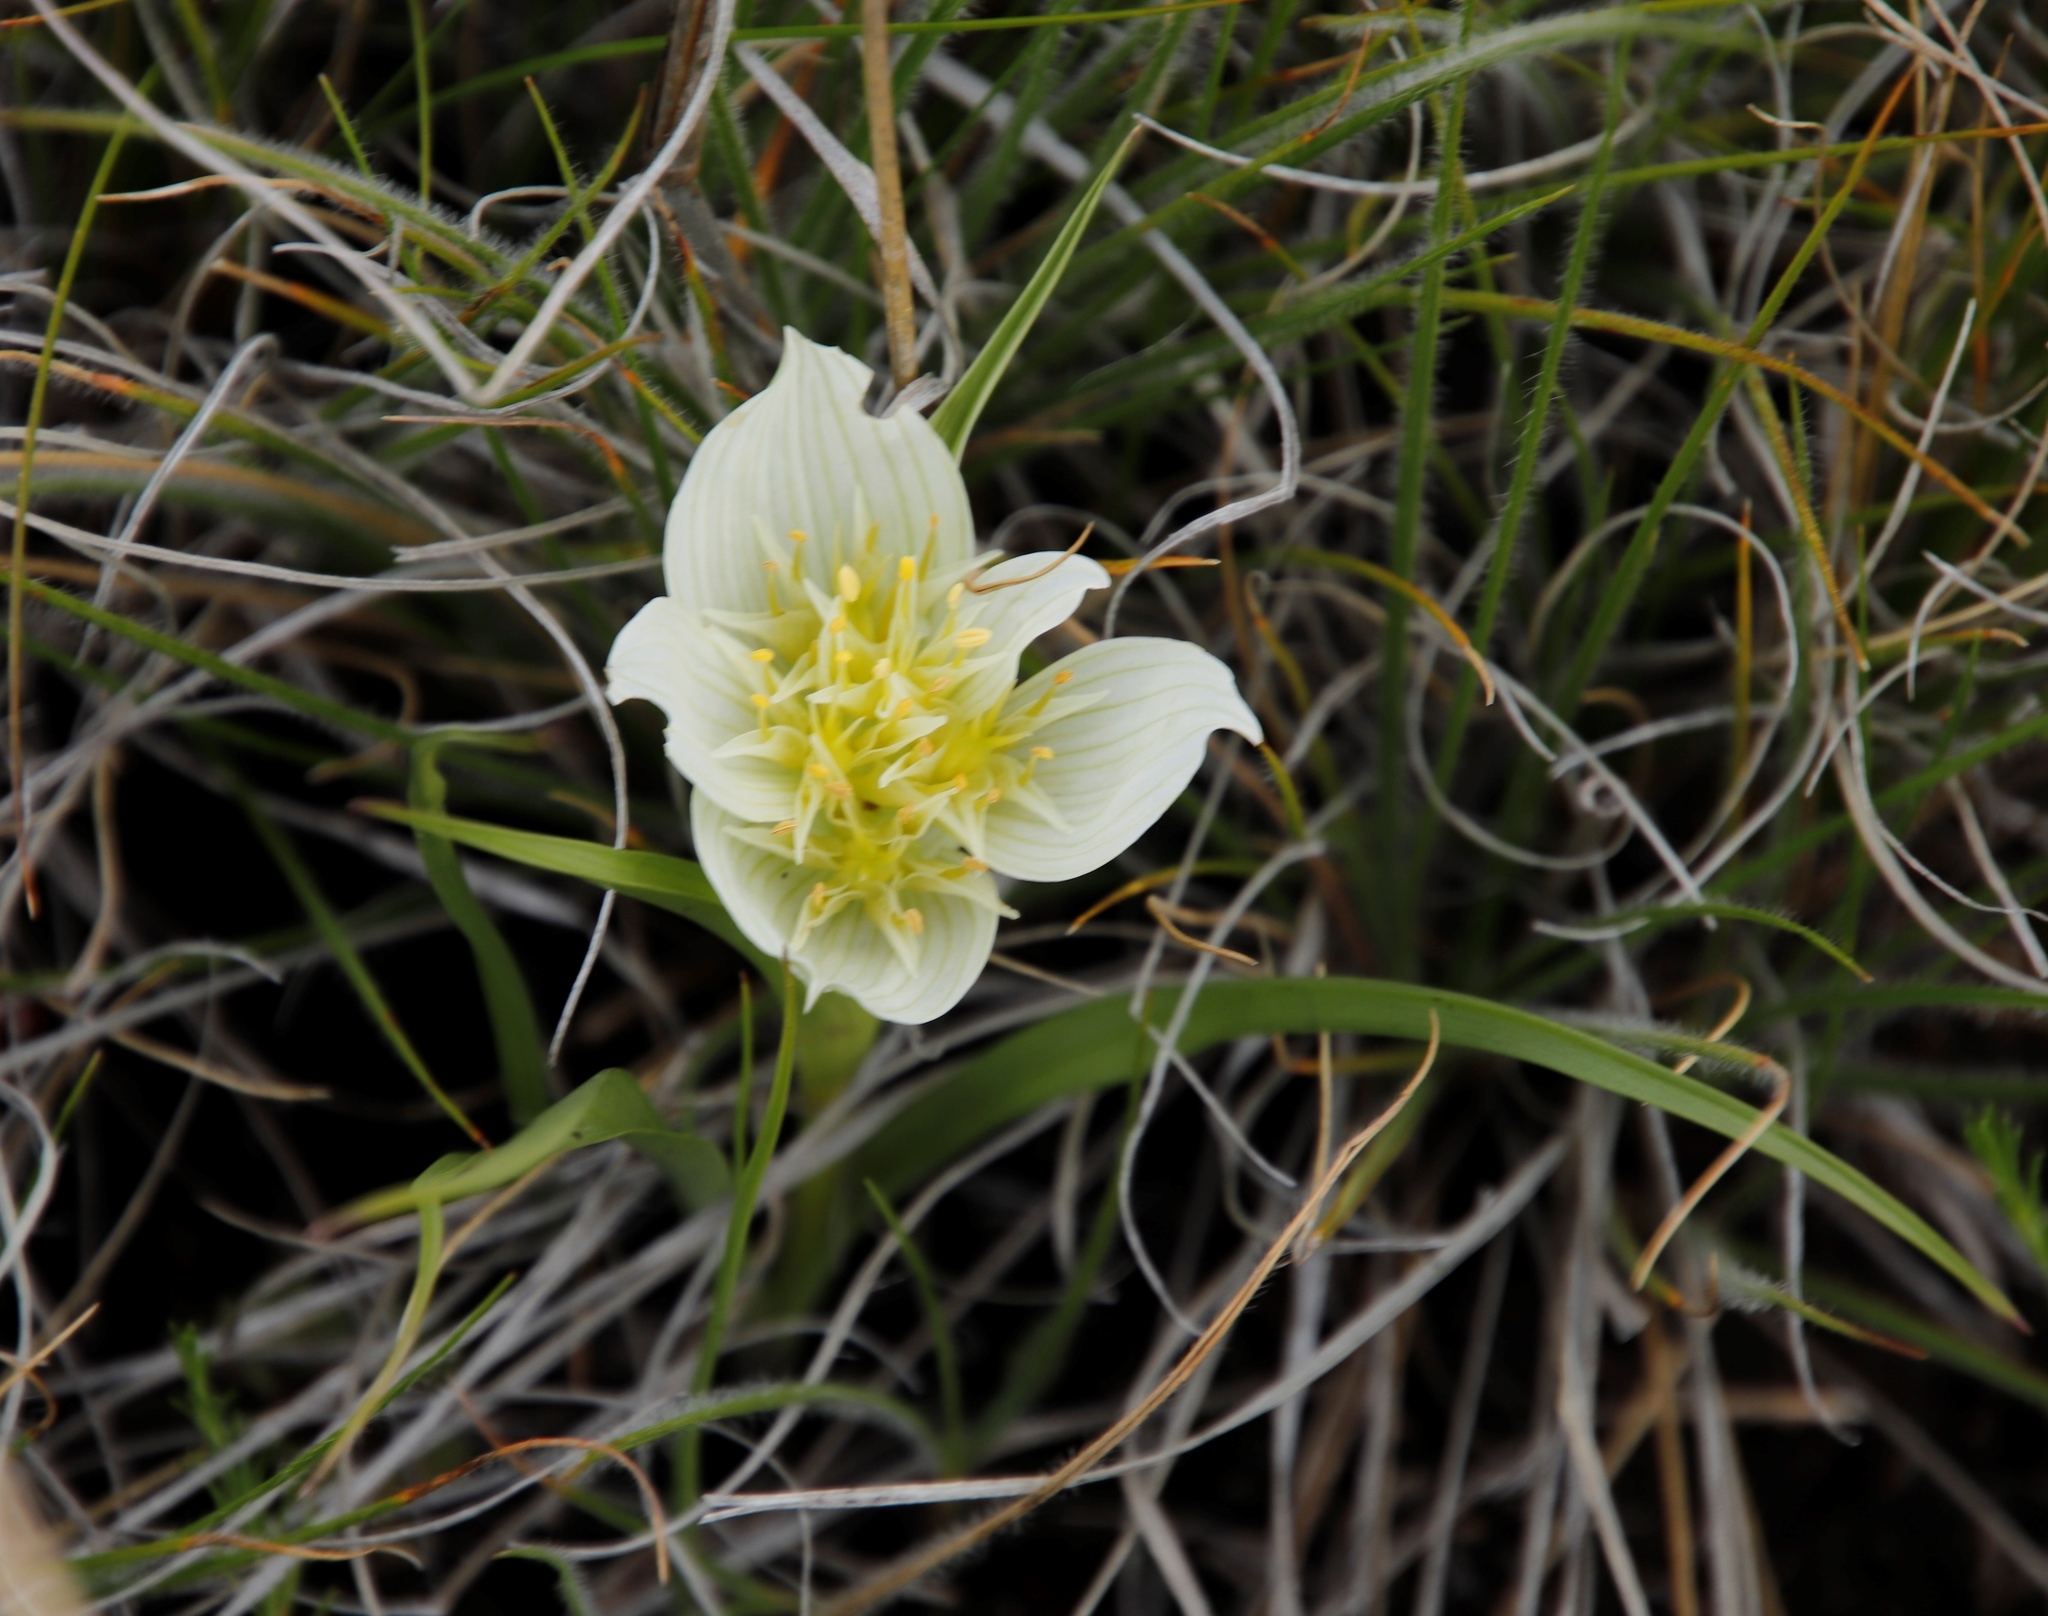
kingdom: Plantae
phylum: Tracheophyta
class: Liliopsida
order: Liliales
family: Colchicaceae
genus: Colchicum
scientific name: Colchicum striatum
